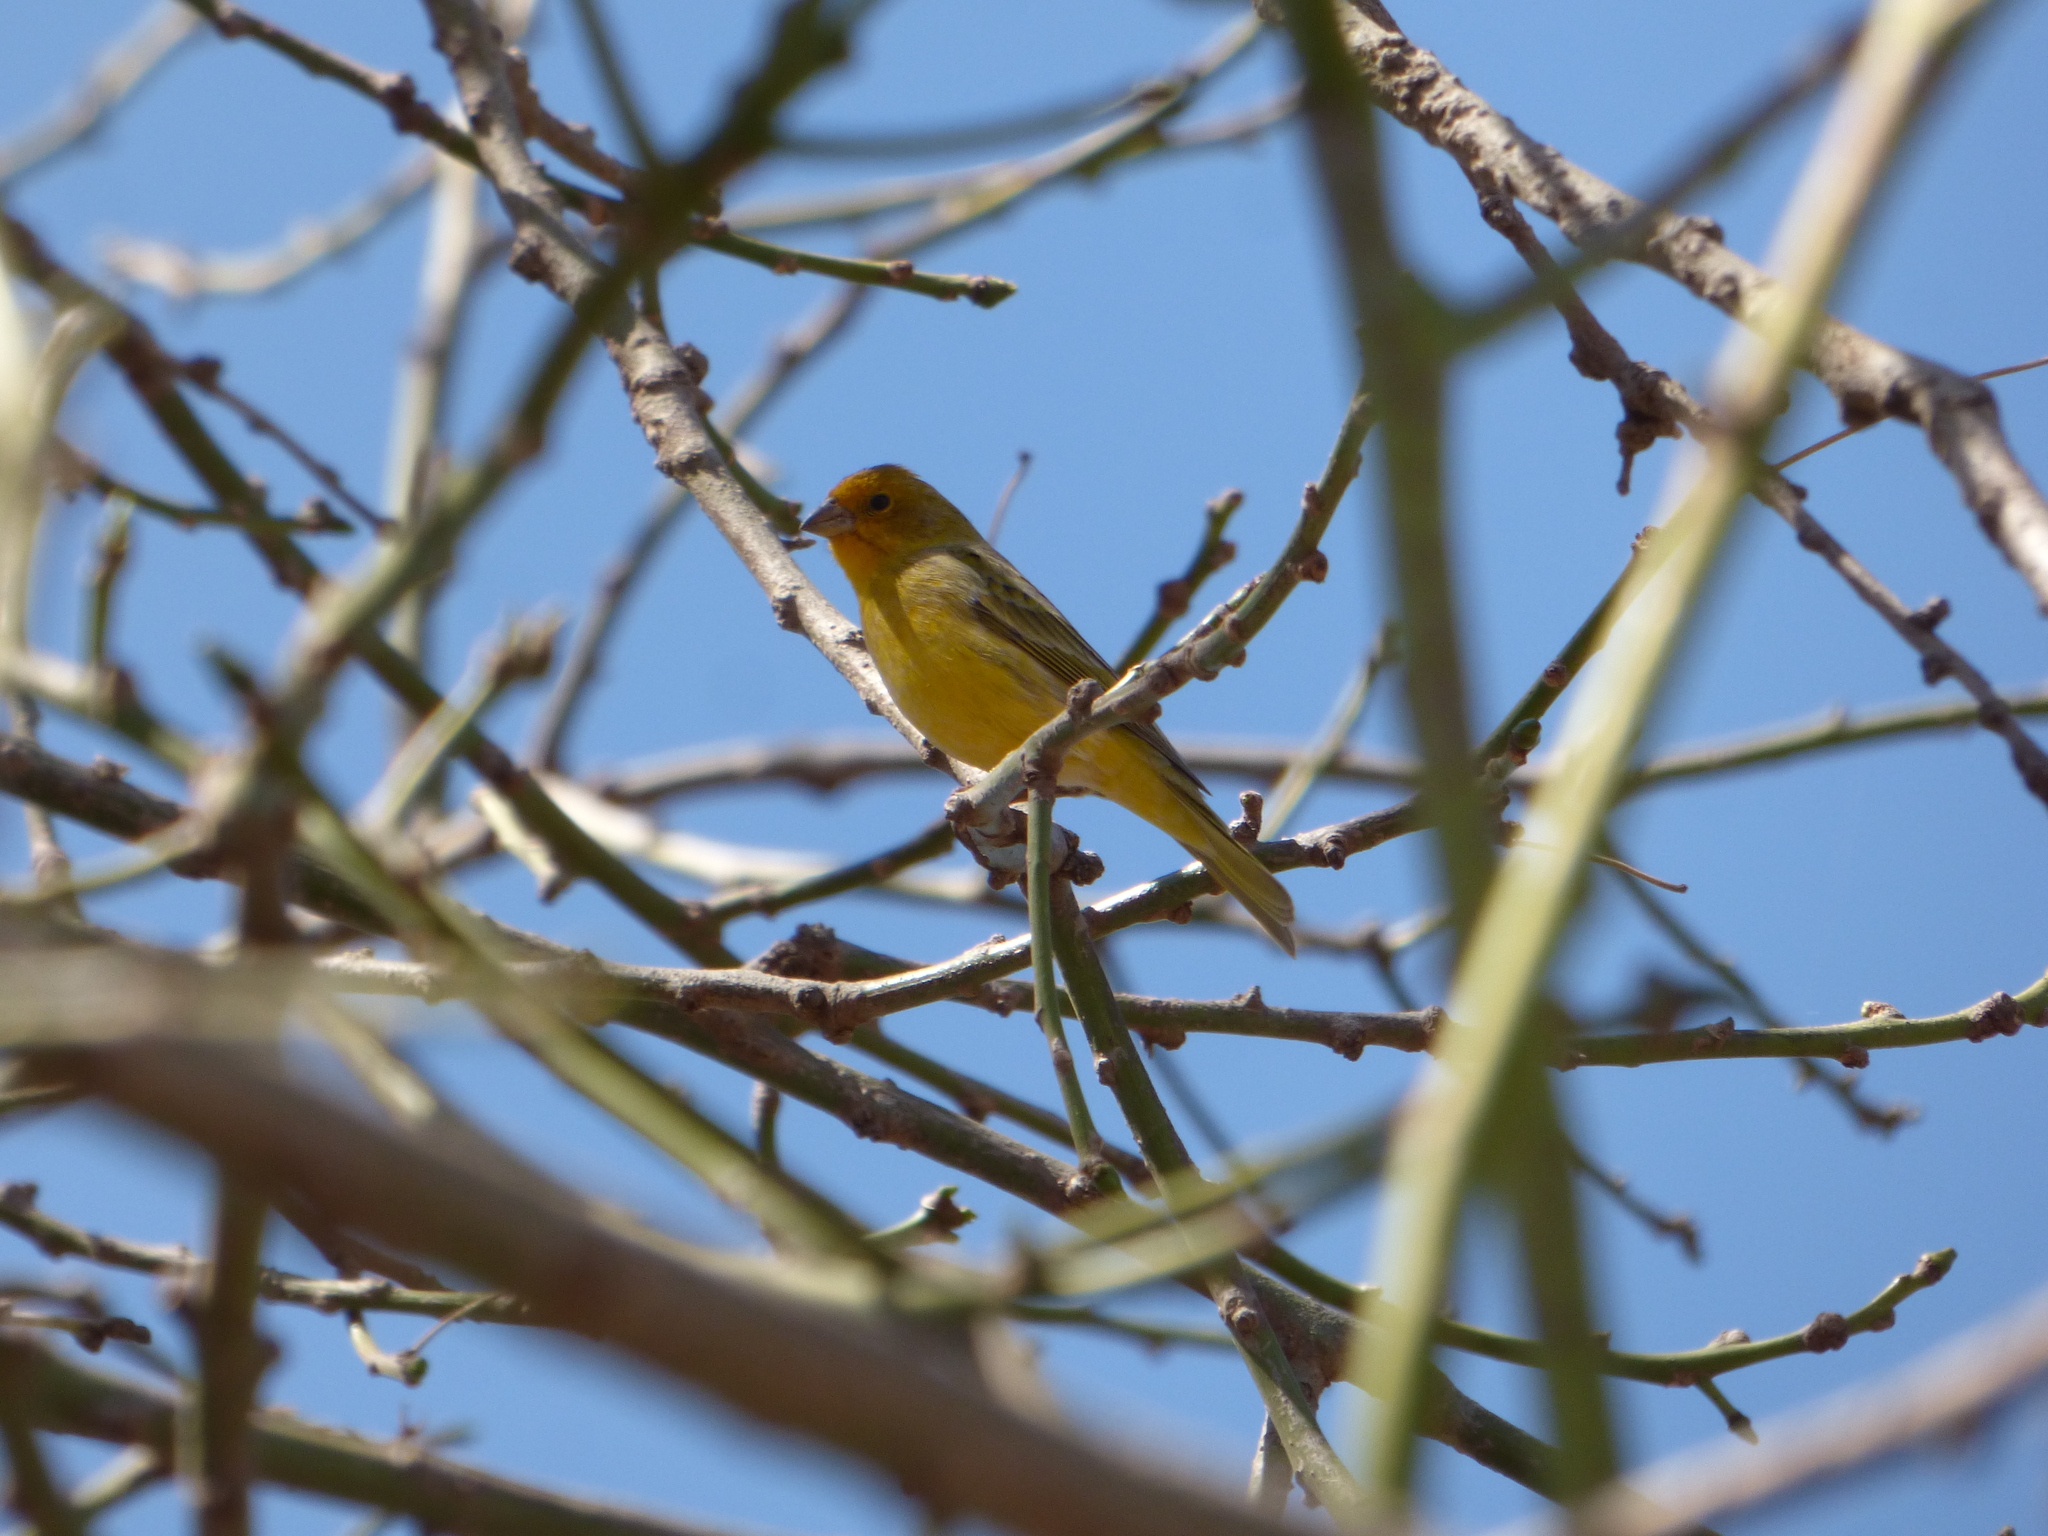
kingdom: Animalia
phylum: Chordata
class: Aves
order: Passeriformes
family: Thraupidae
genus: Sicalis
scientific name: Sicalis flaveola
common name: Saffron finch
